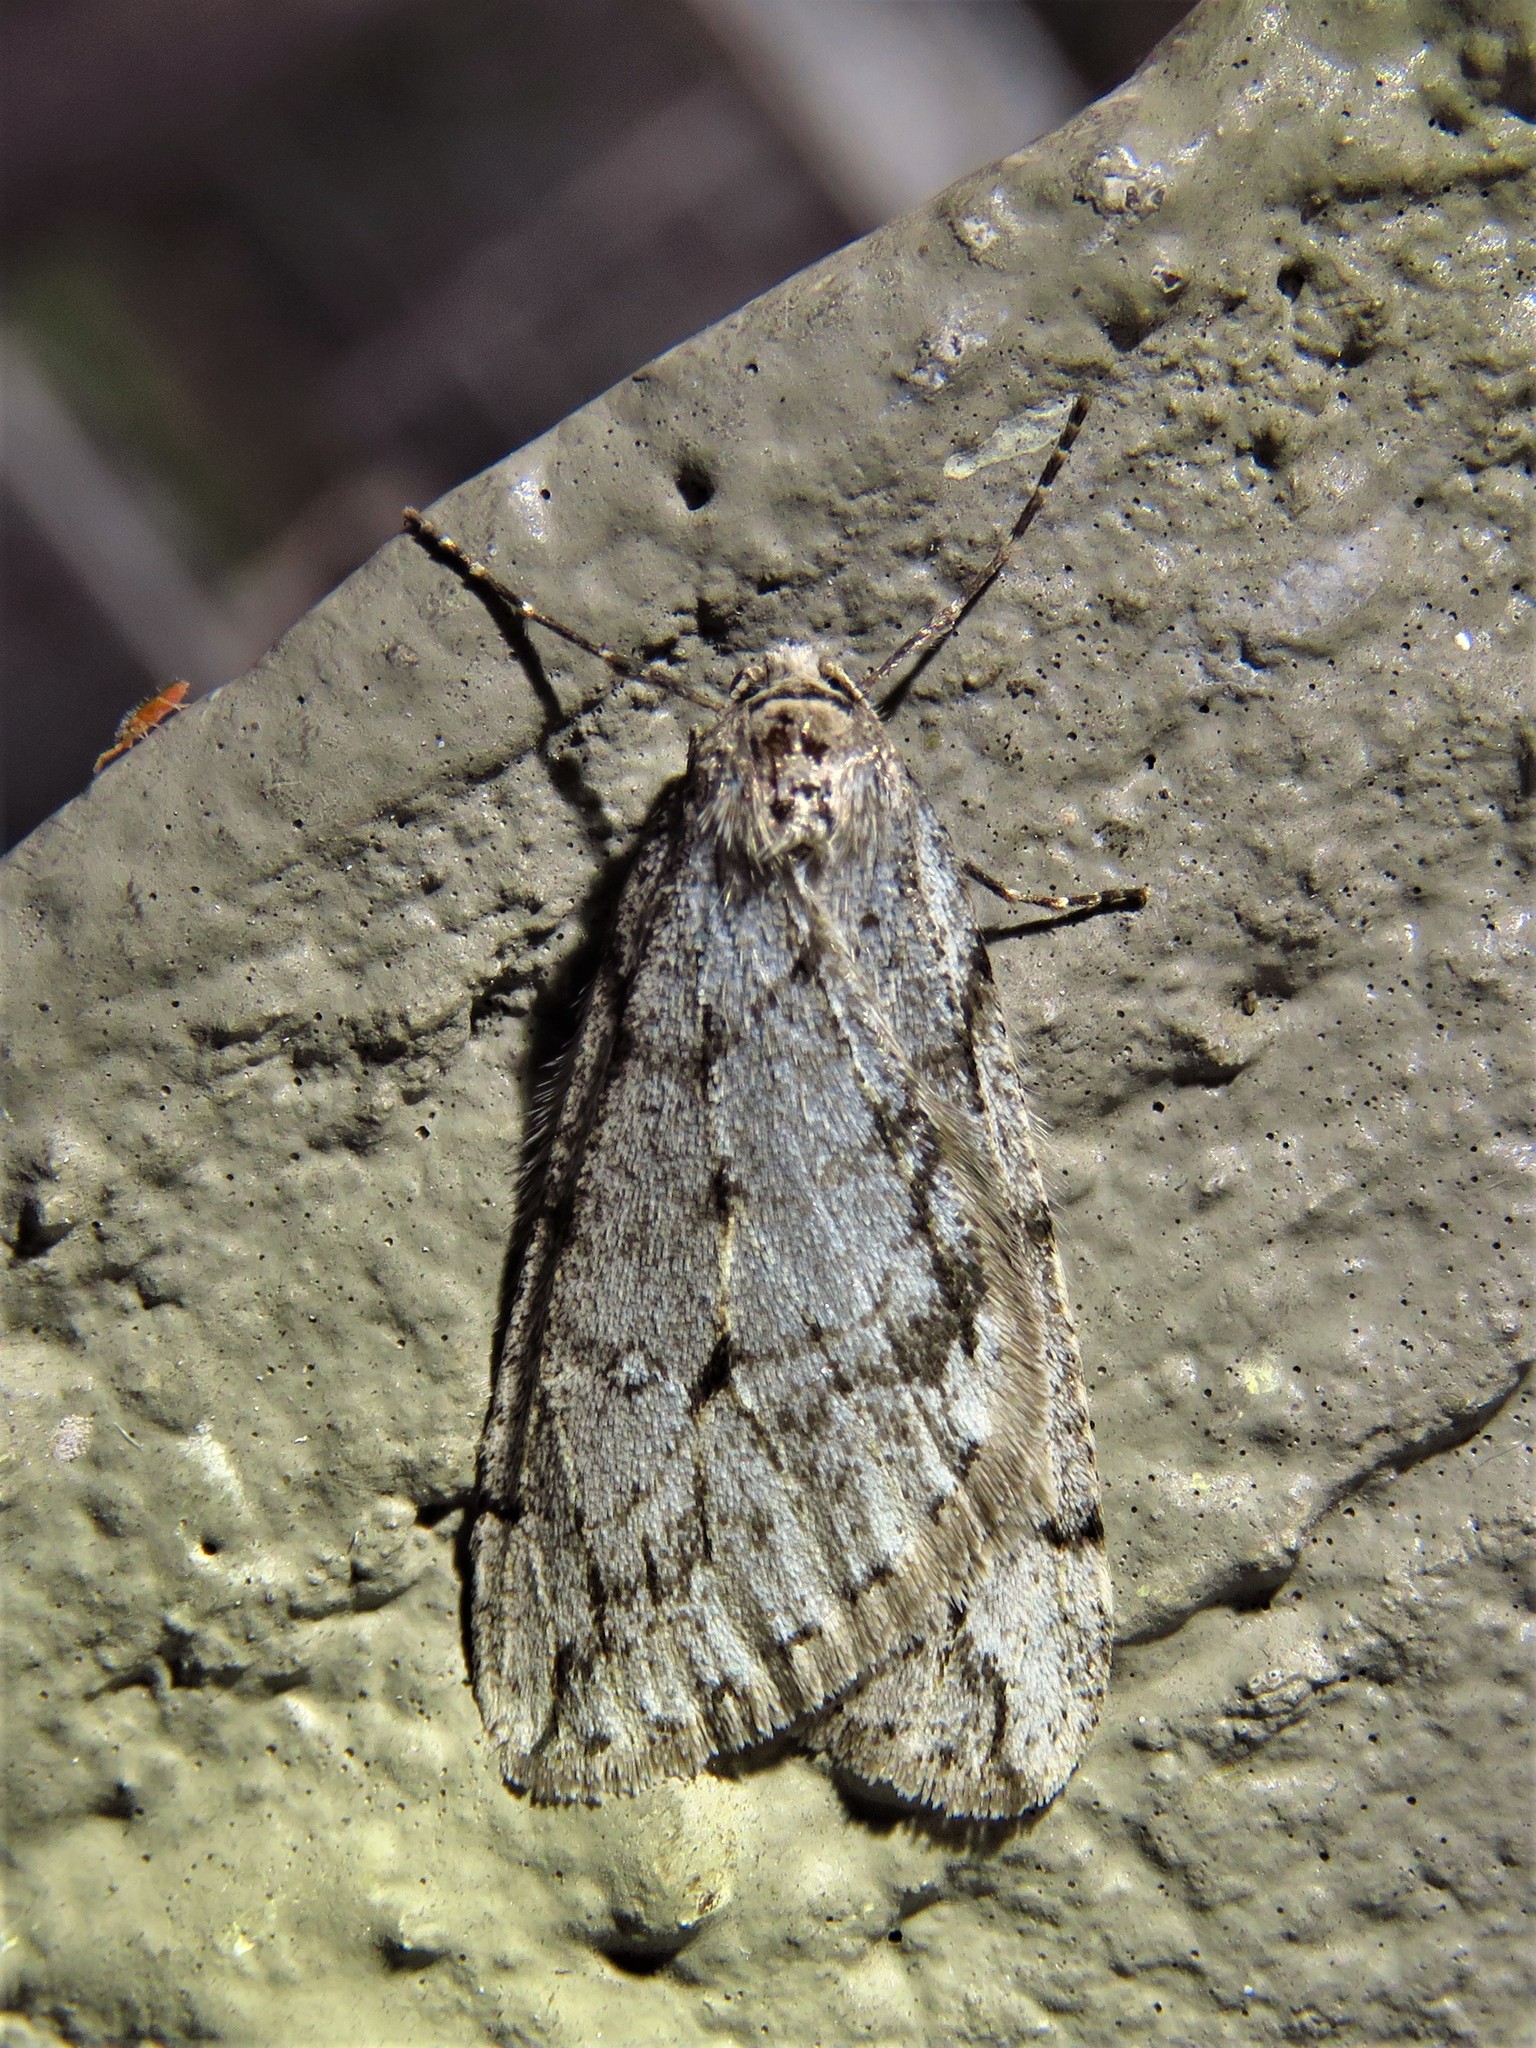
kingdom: Animalia
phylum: Arthropoda
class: Insecta
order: Lepidoptera
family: Geometridae
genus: Paleacrita
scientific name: Paleacrita vernata
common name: Spring cankerworm
